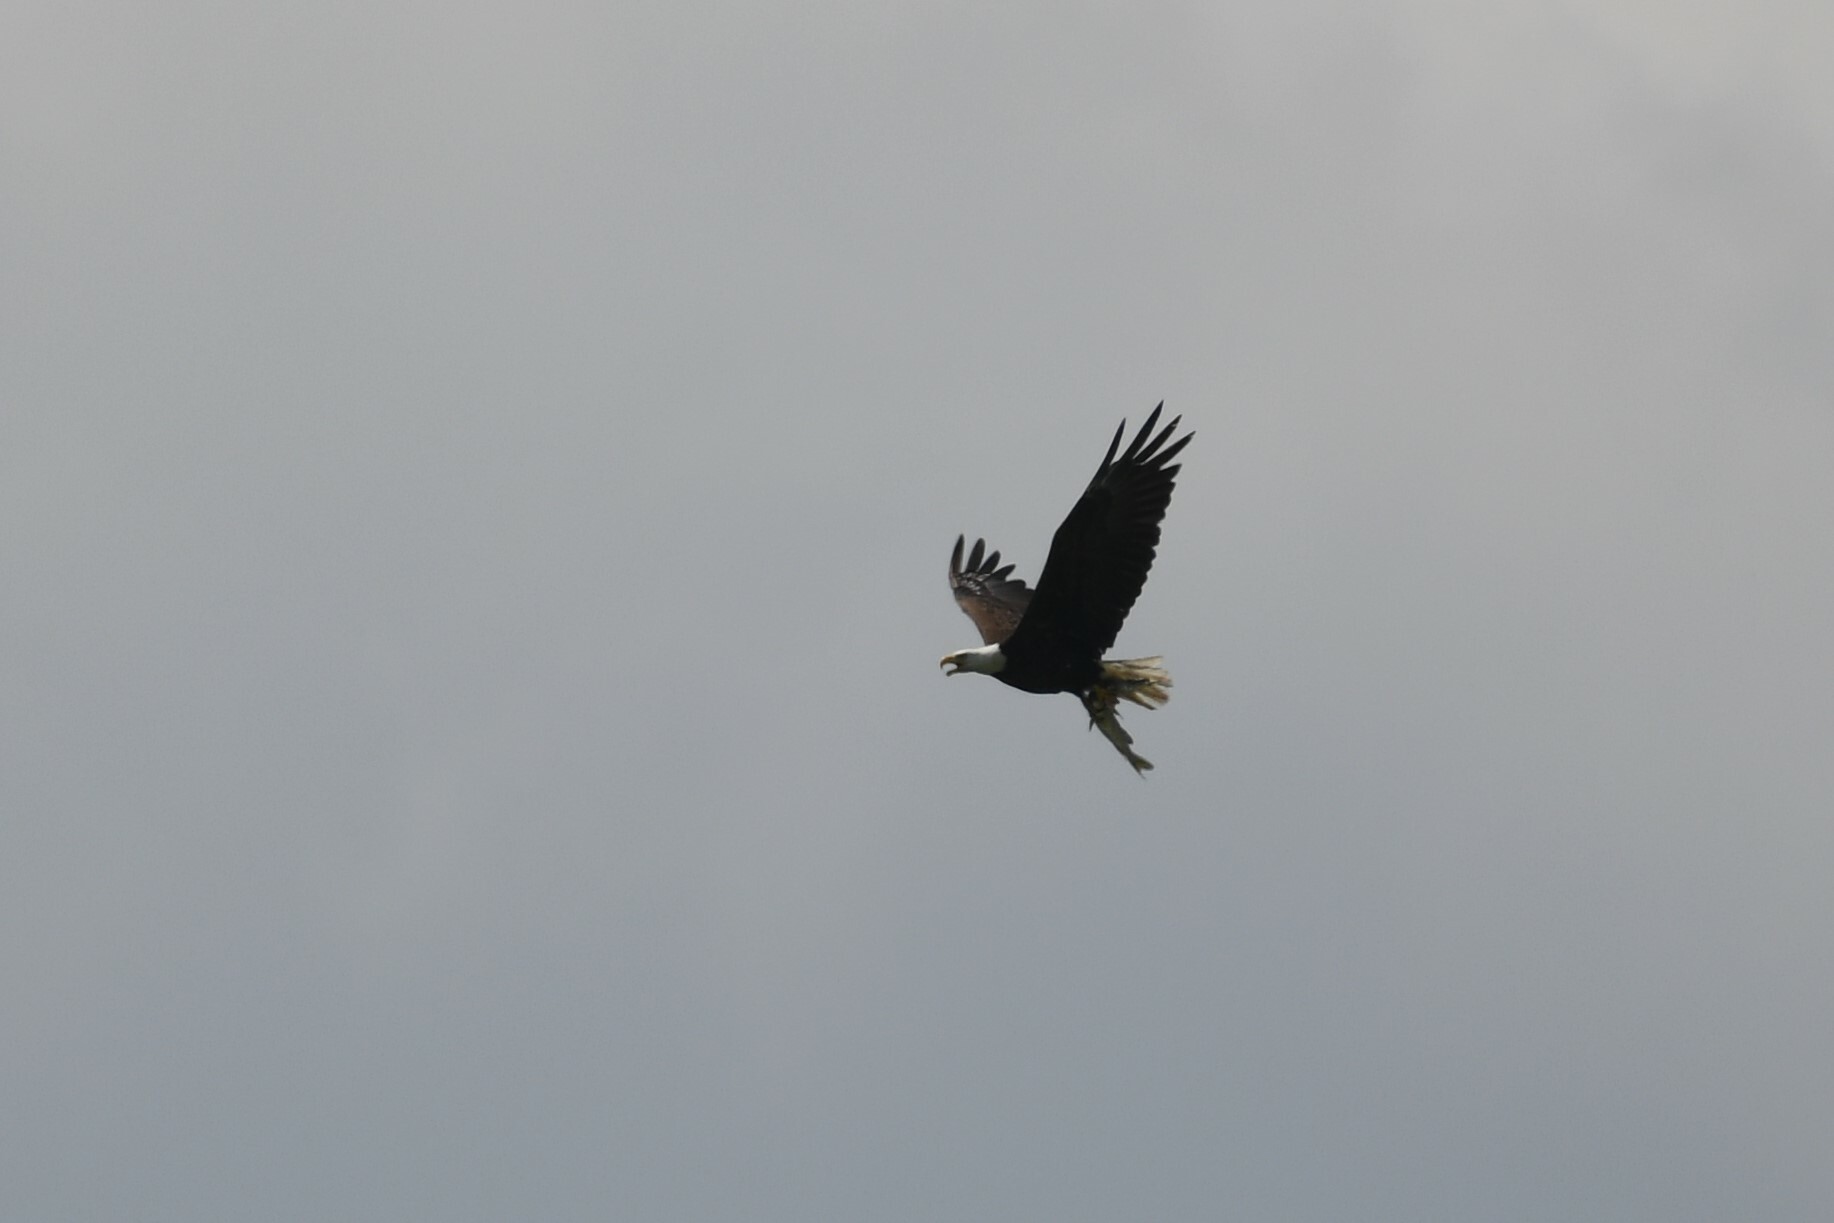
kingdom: Animalia
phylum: Chordata
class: Aves
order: Accipitriformes
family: Accipitridae
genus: Haliaeetus
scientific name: Haliaeetus leucocephalus
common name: Bald eagle
